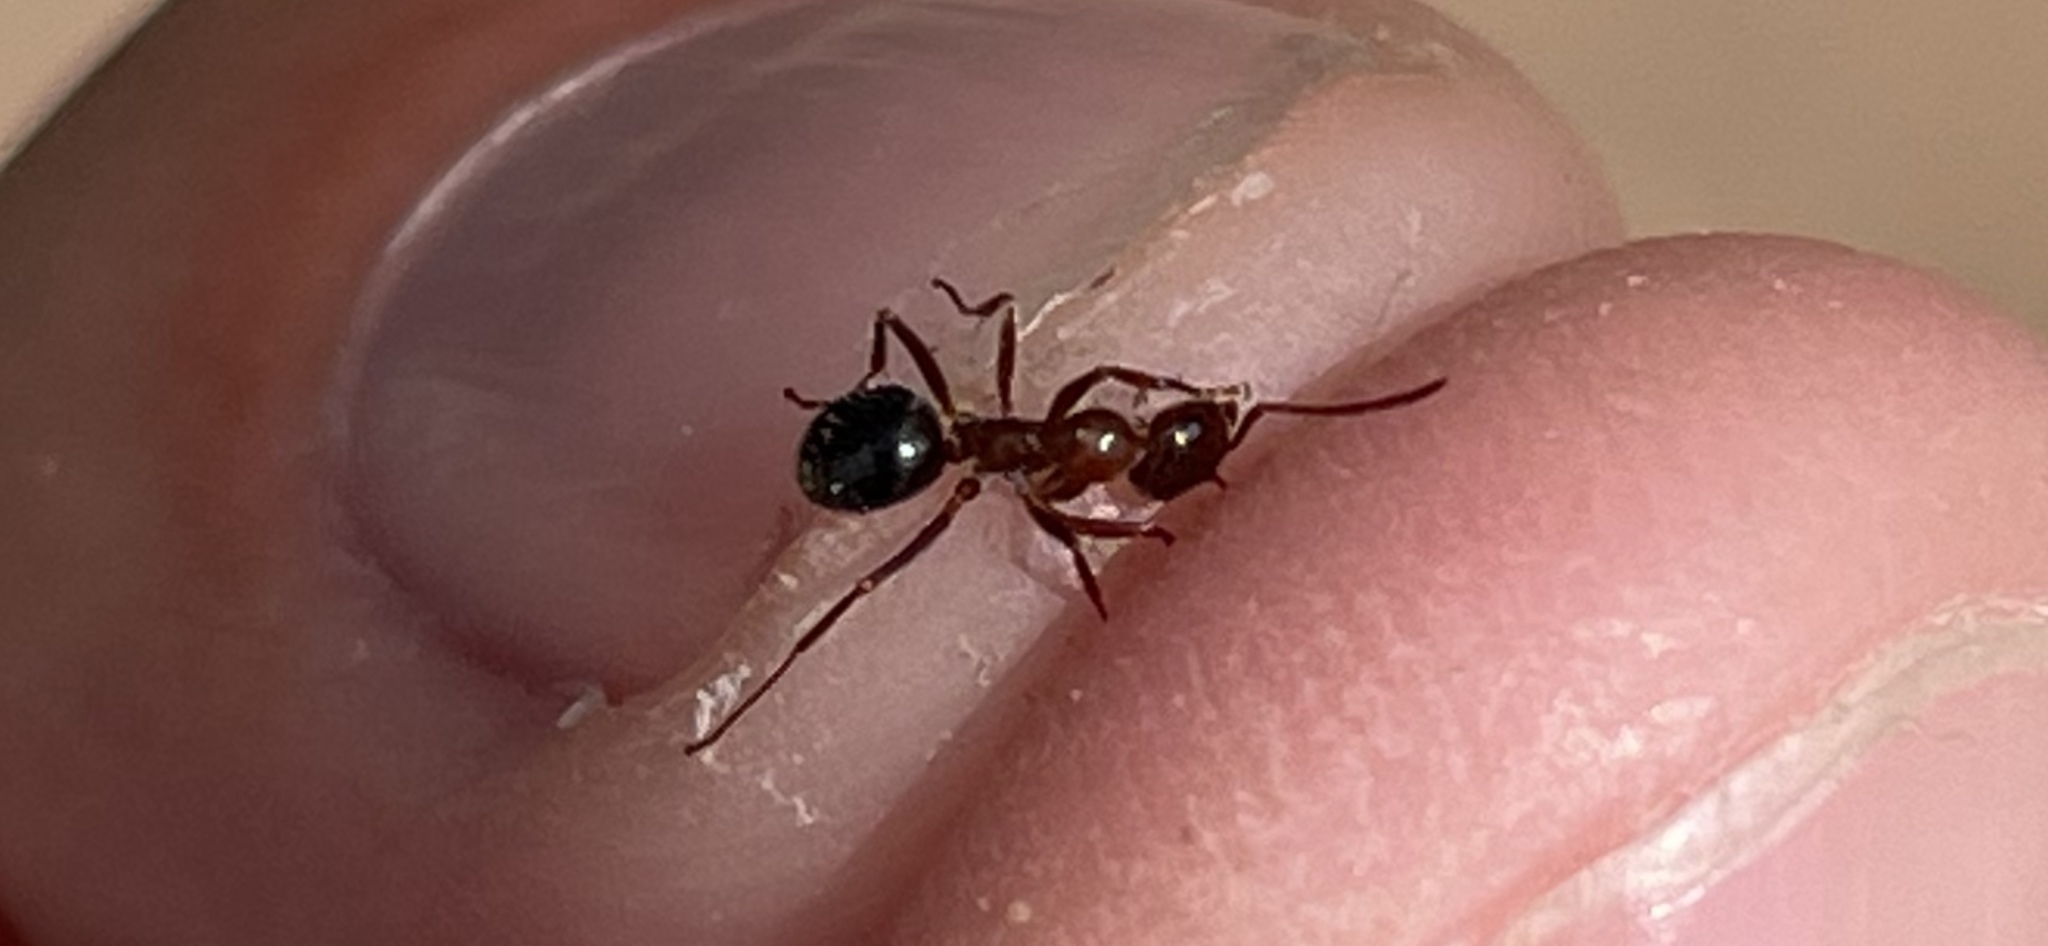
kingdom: Animalia
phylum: Arthropoda
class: Insecta
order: Hymenoptera
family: Formicidae
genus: Formica
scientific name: Formica perpilosa
